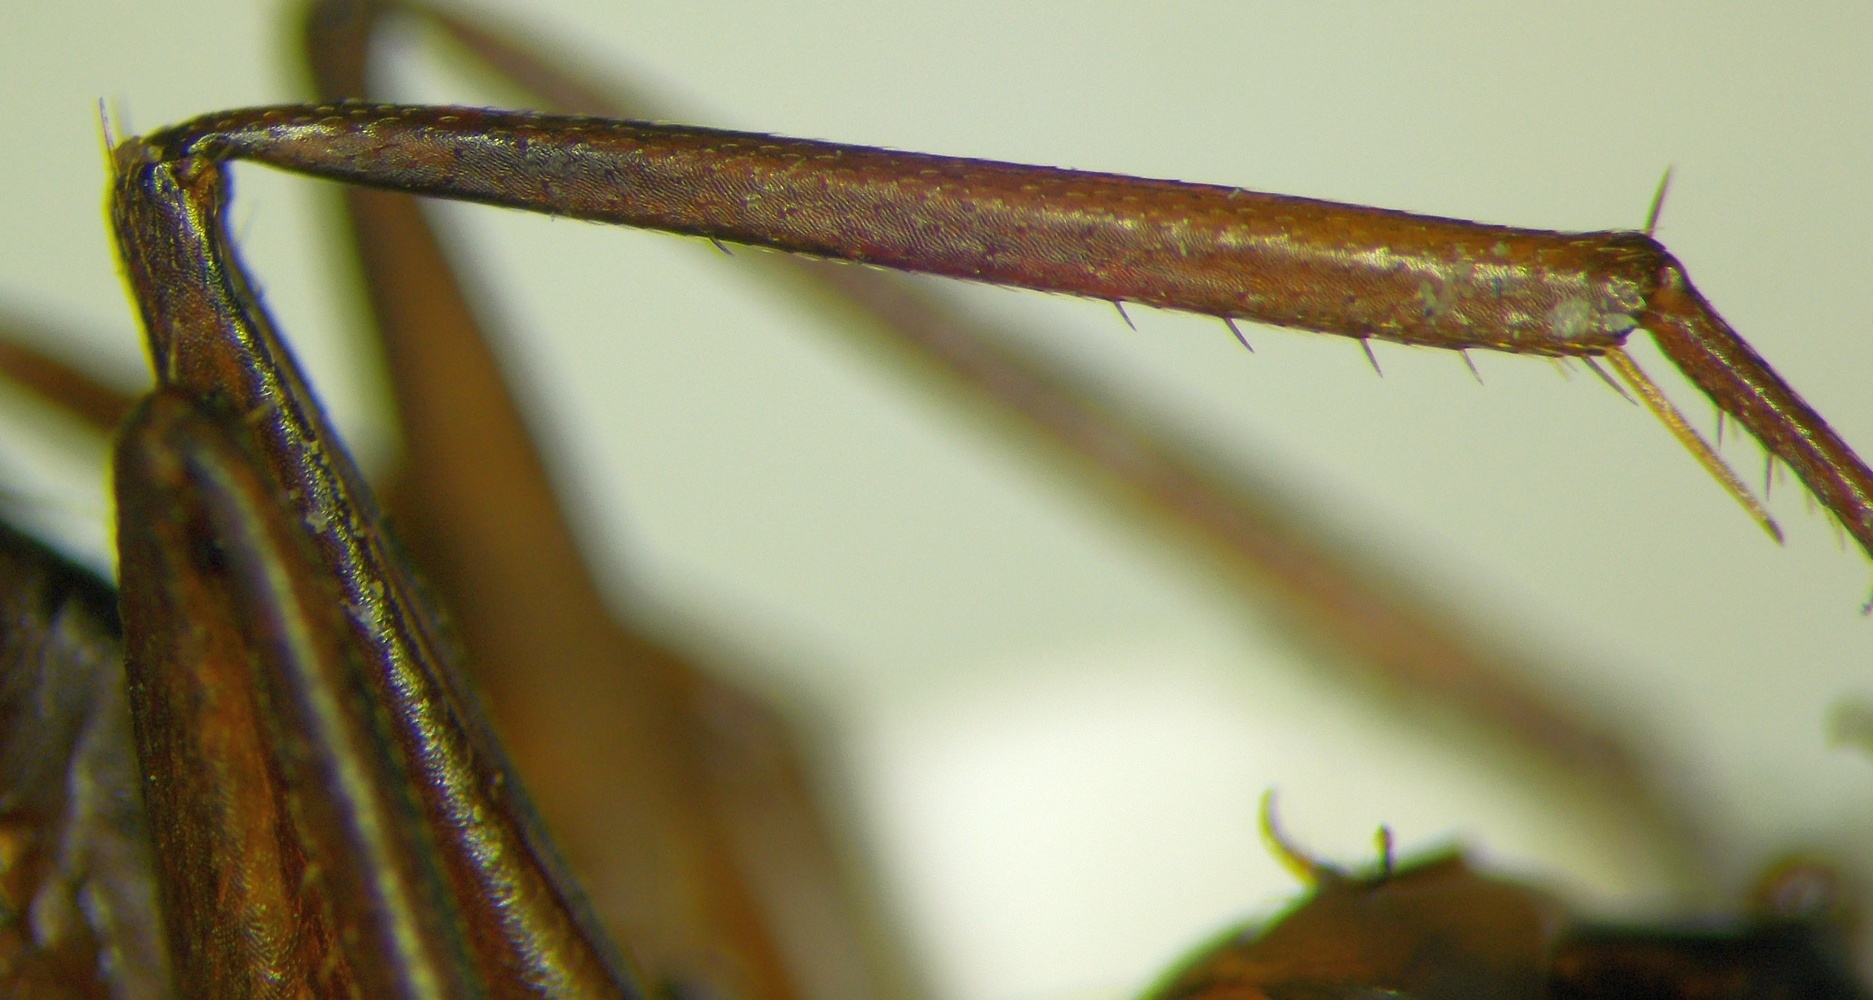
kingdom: Animalia
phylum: Arthropoda
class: Insecta
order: Hymenoptera
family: Formicidae
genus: Camponotus
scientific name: Camponotus oasium
